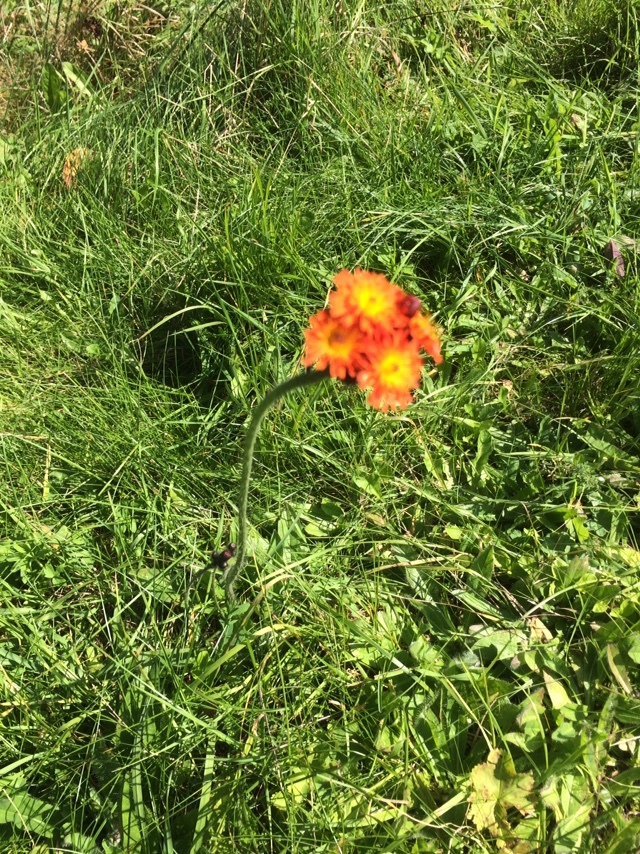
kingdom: Plantae
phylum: Tracheophyta
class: Magnoliopsida
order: Asterales
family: Asteraceae
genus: Pilosella
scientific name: Pilosella aurantiaca
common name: Fox-and-cubs
